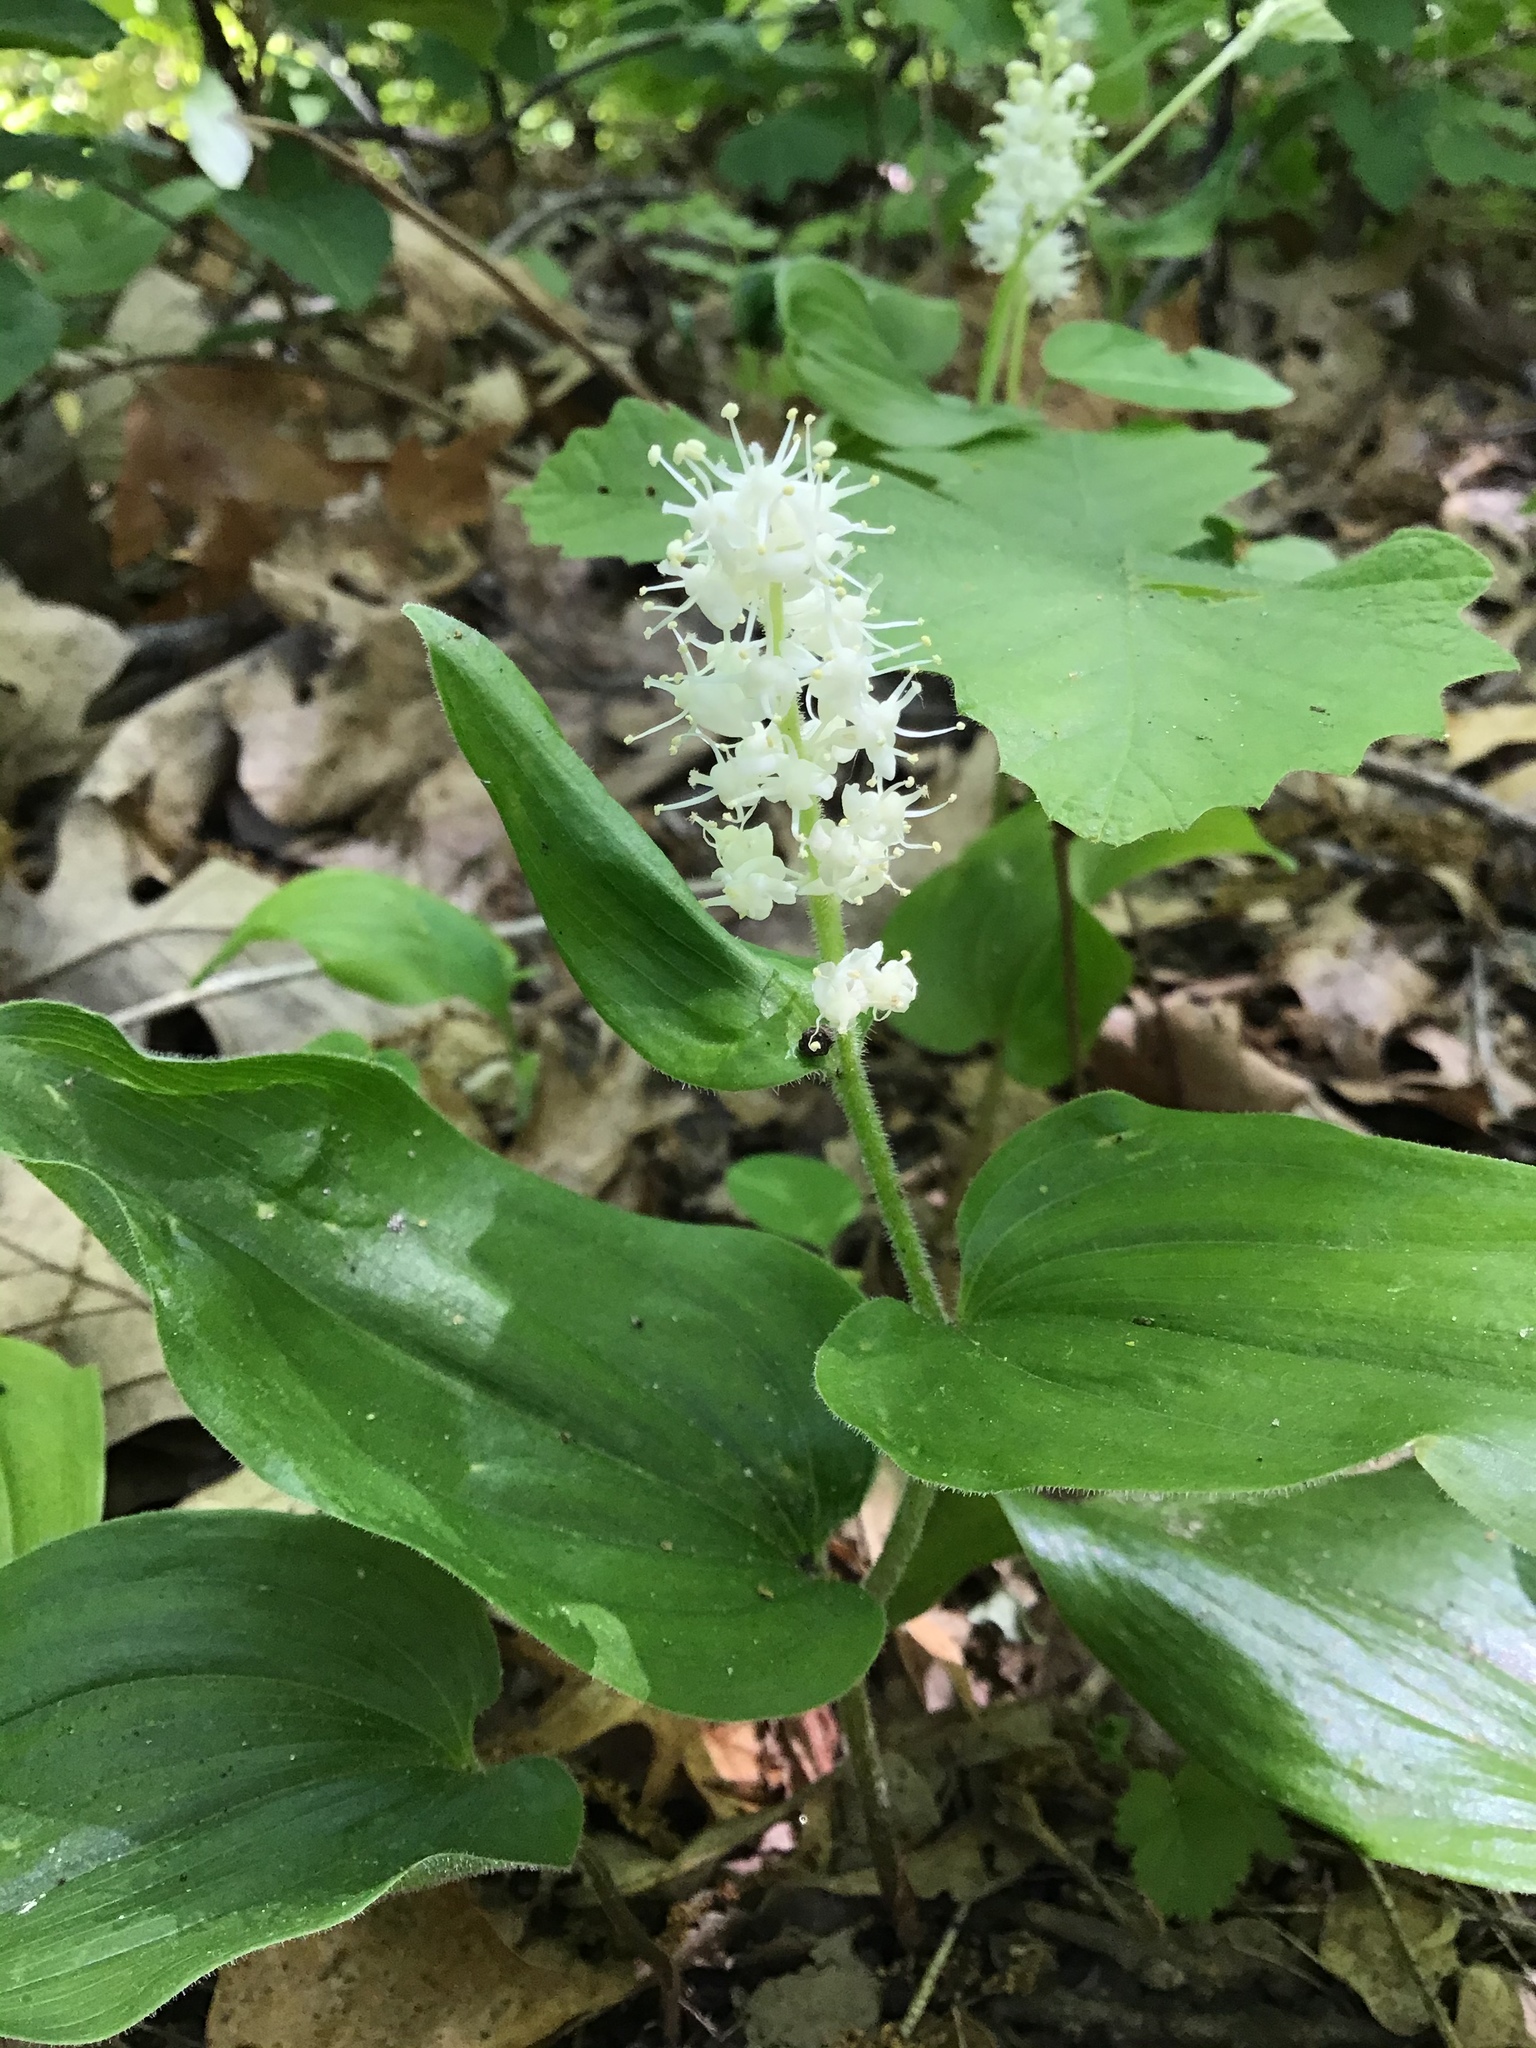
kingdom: Plantae
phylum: Tracheophyta
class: Liliopsida
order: Asparagales
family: Asparagaceae
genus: Maianthemum
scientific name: Maianthemum canadense
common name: False lily-of-the-valley
